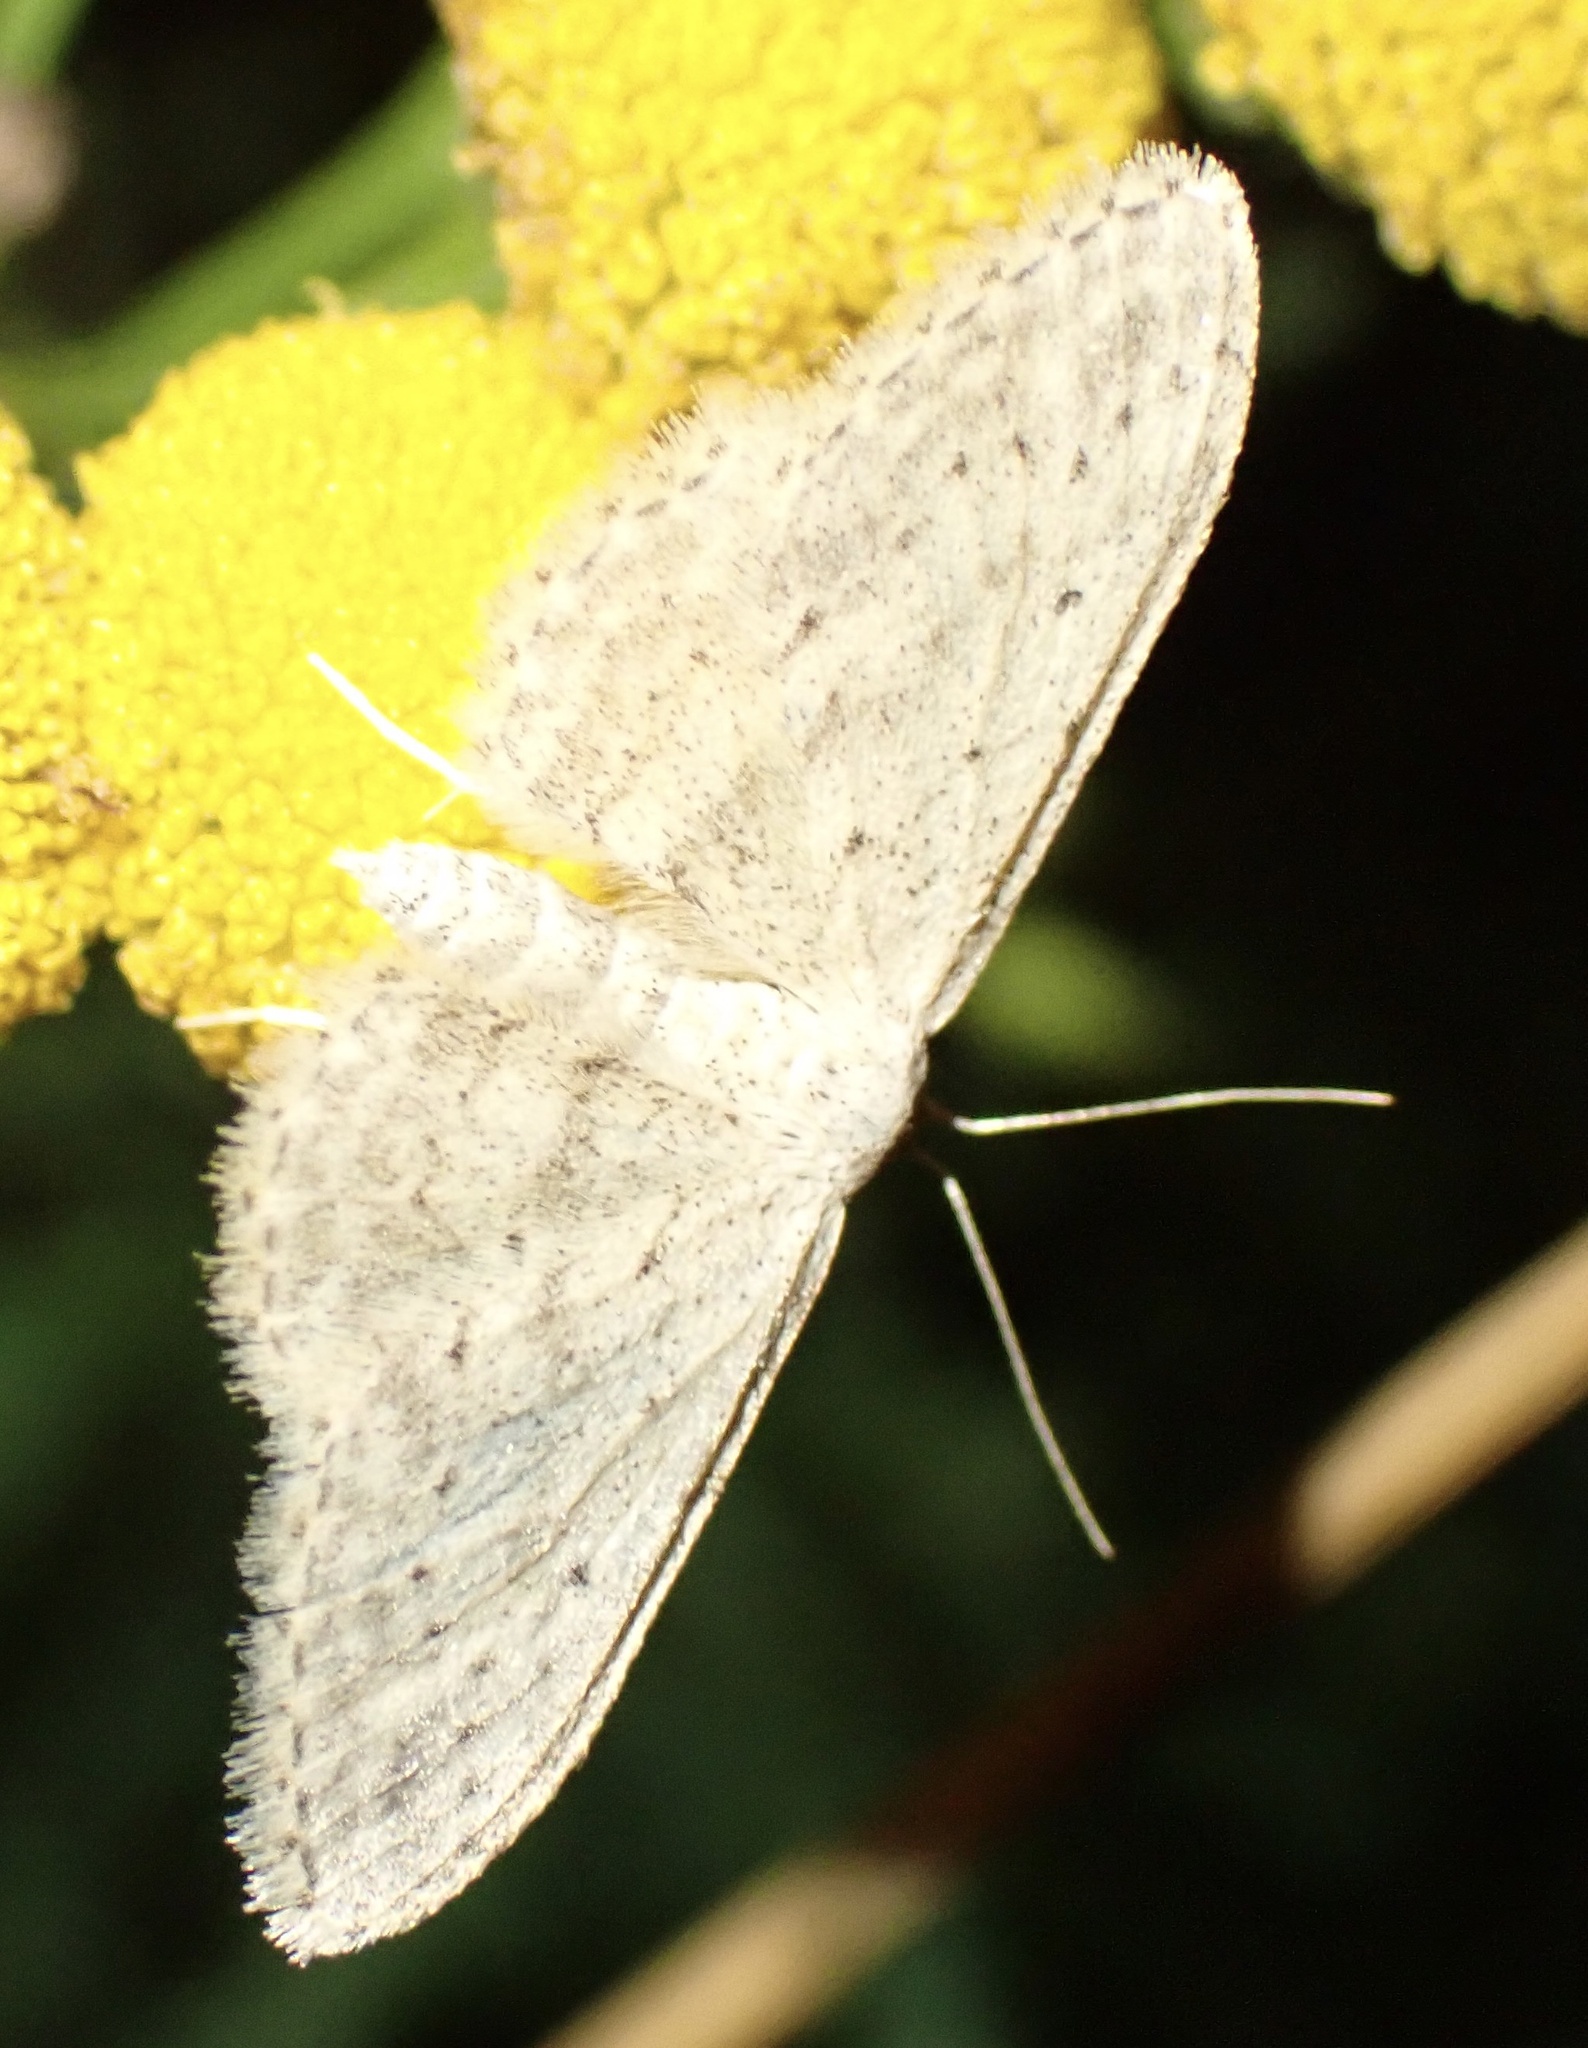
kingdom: Animalia
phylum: Arthropoda
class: Insecta
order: Lepidoptera
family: Geometridae
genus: Idaea
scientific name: Idaea seriata
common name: Small dusty wave
